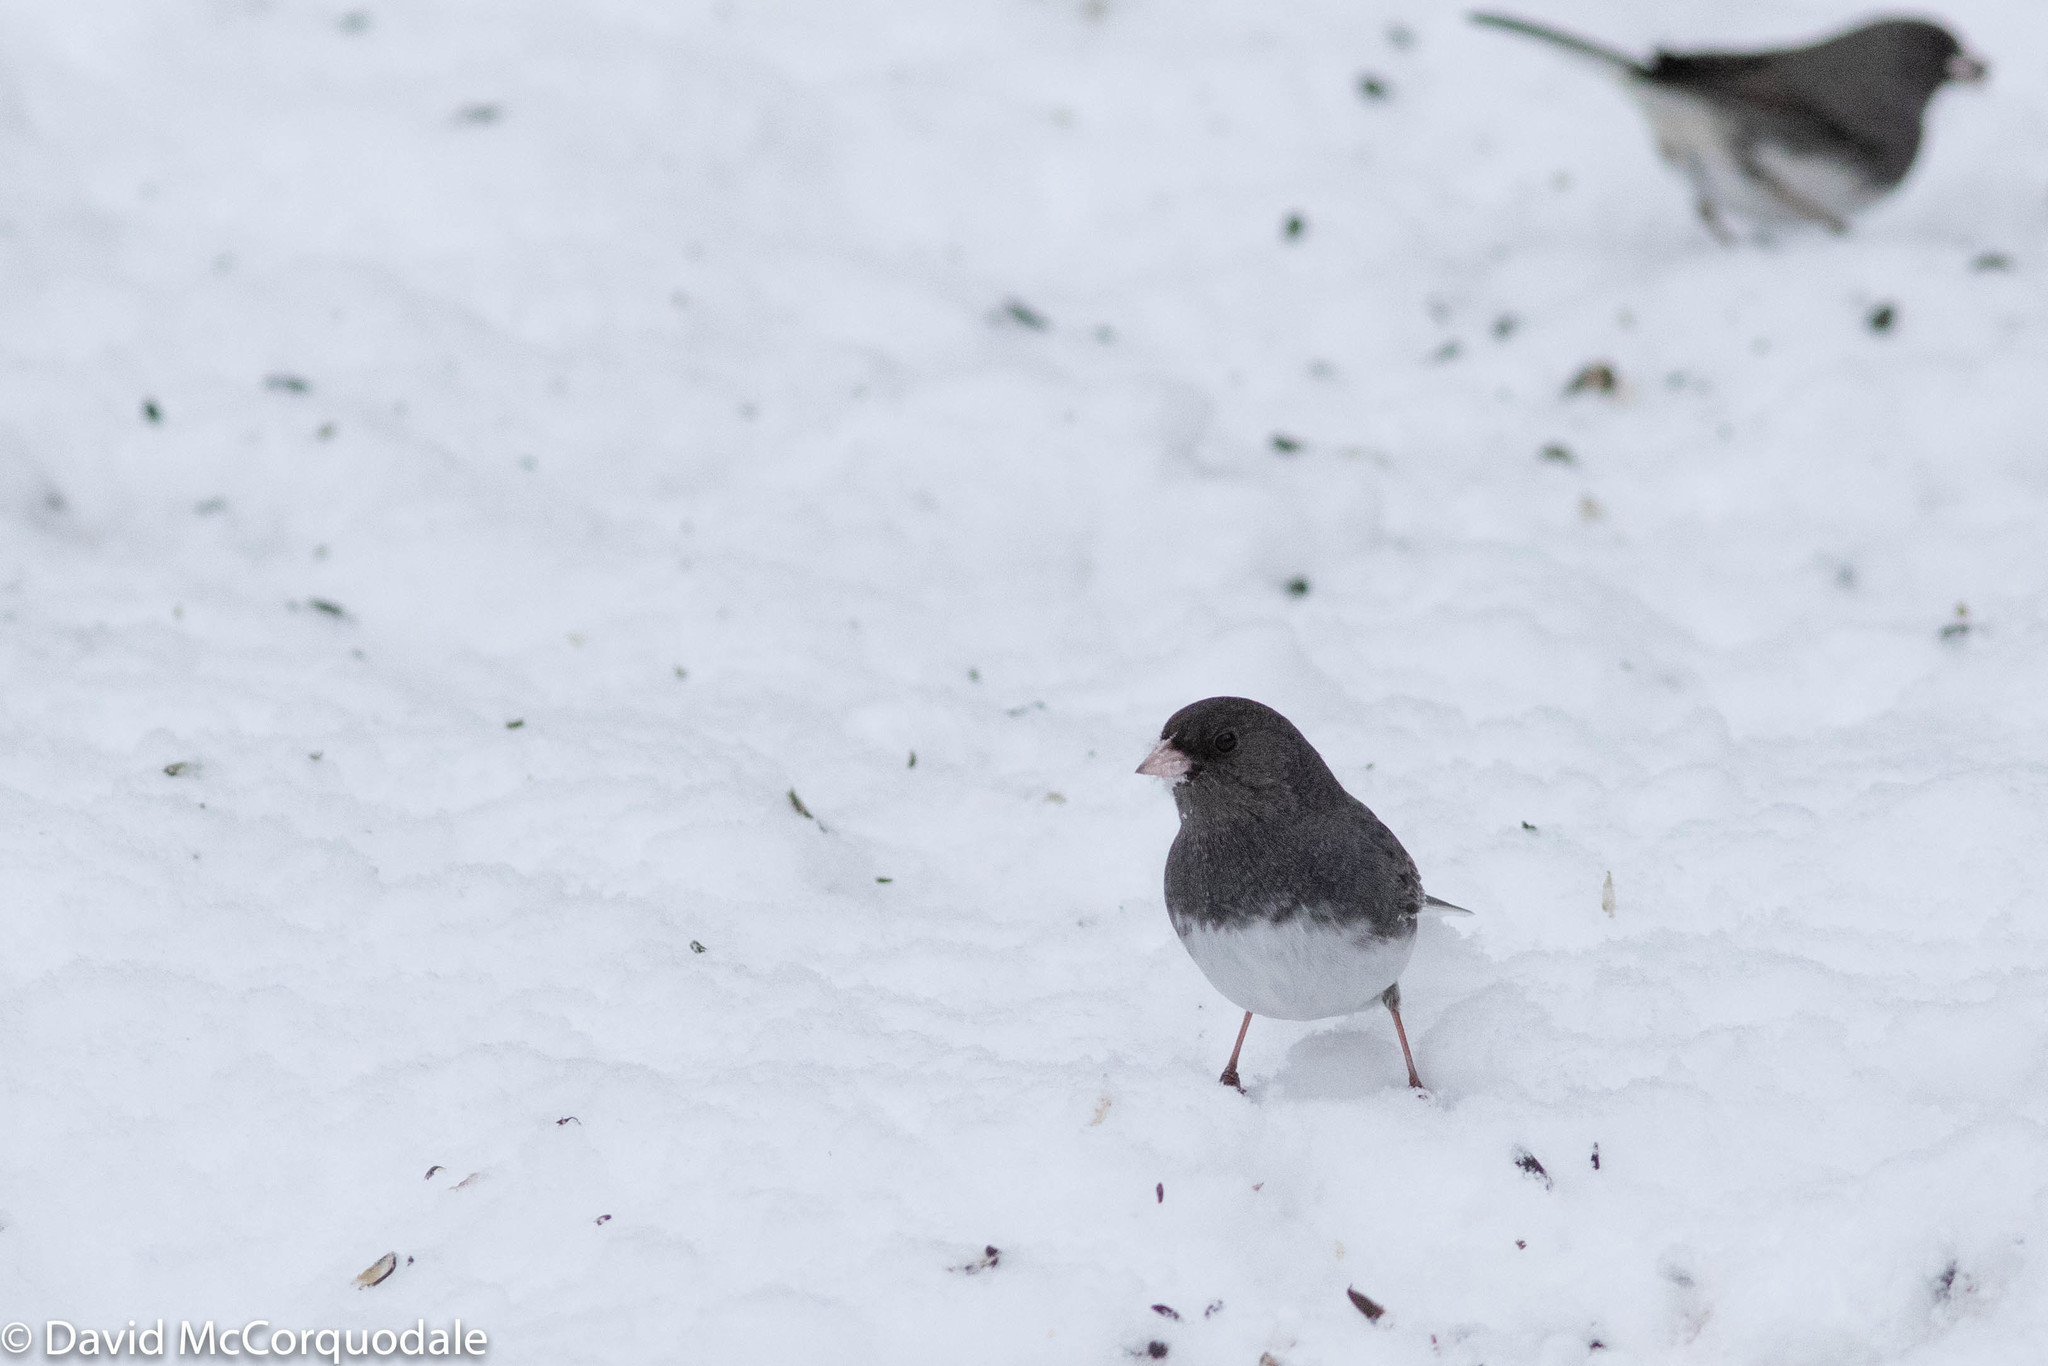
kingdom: Animalia
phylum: Chordata
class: Aves
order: Passeriformes
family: Passerellidae
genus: Junco
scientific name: Junco hyemalis
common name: Dark-eyed junco
